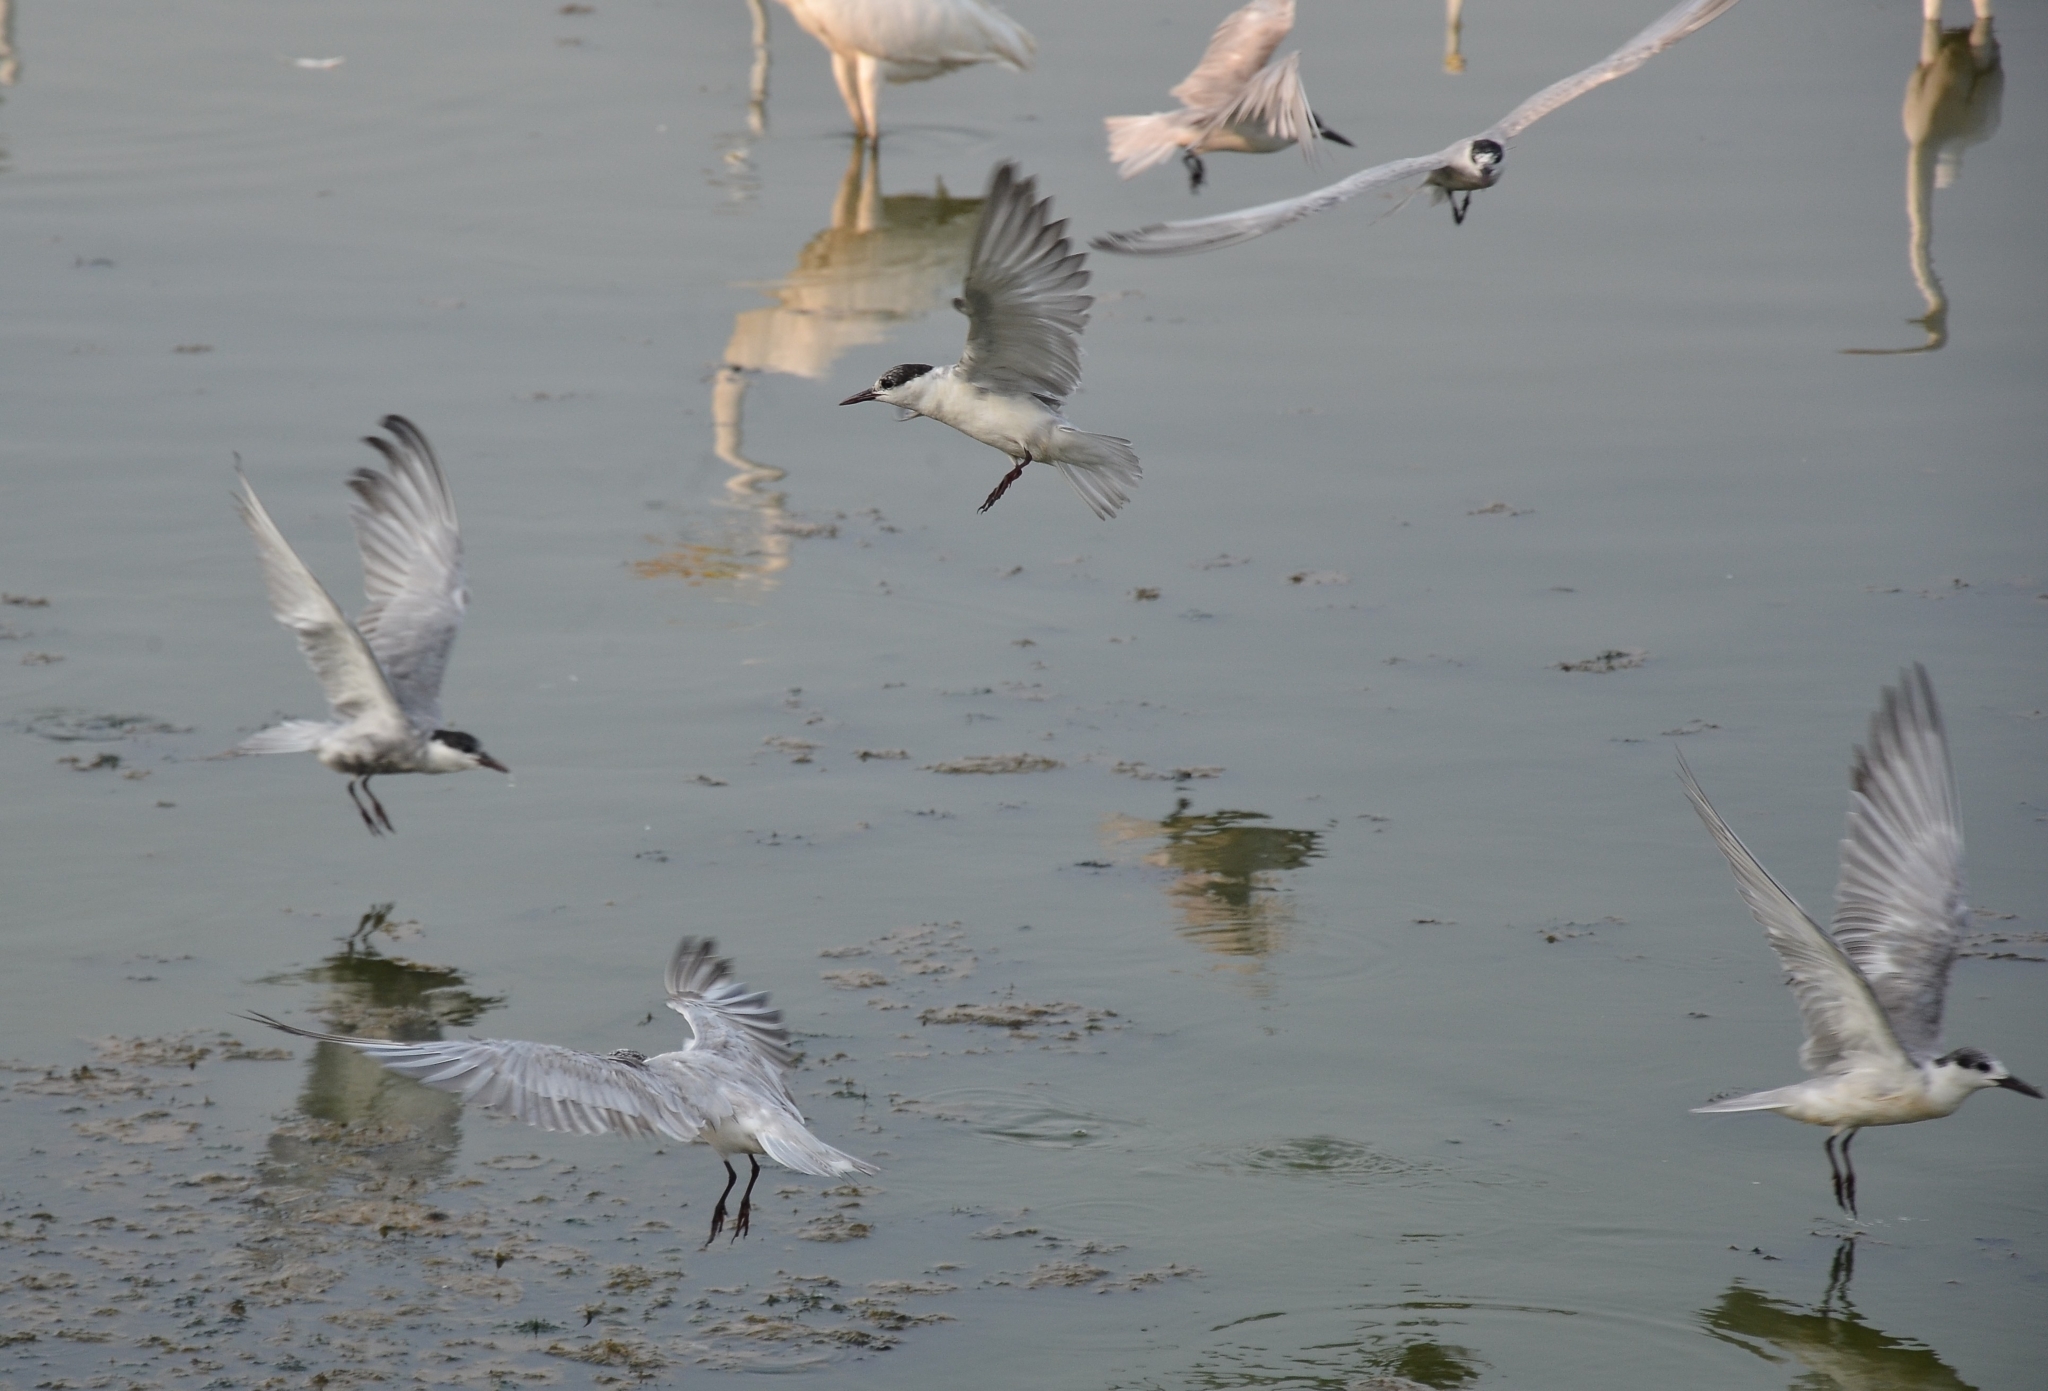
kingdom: Animalia
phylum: Chordata
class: Aves
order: Charadriiformes
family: Laridae
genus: Chlidonias
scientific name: Chlidonias hybrida
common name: Whiskered tern
